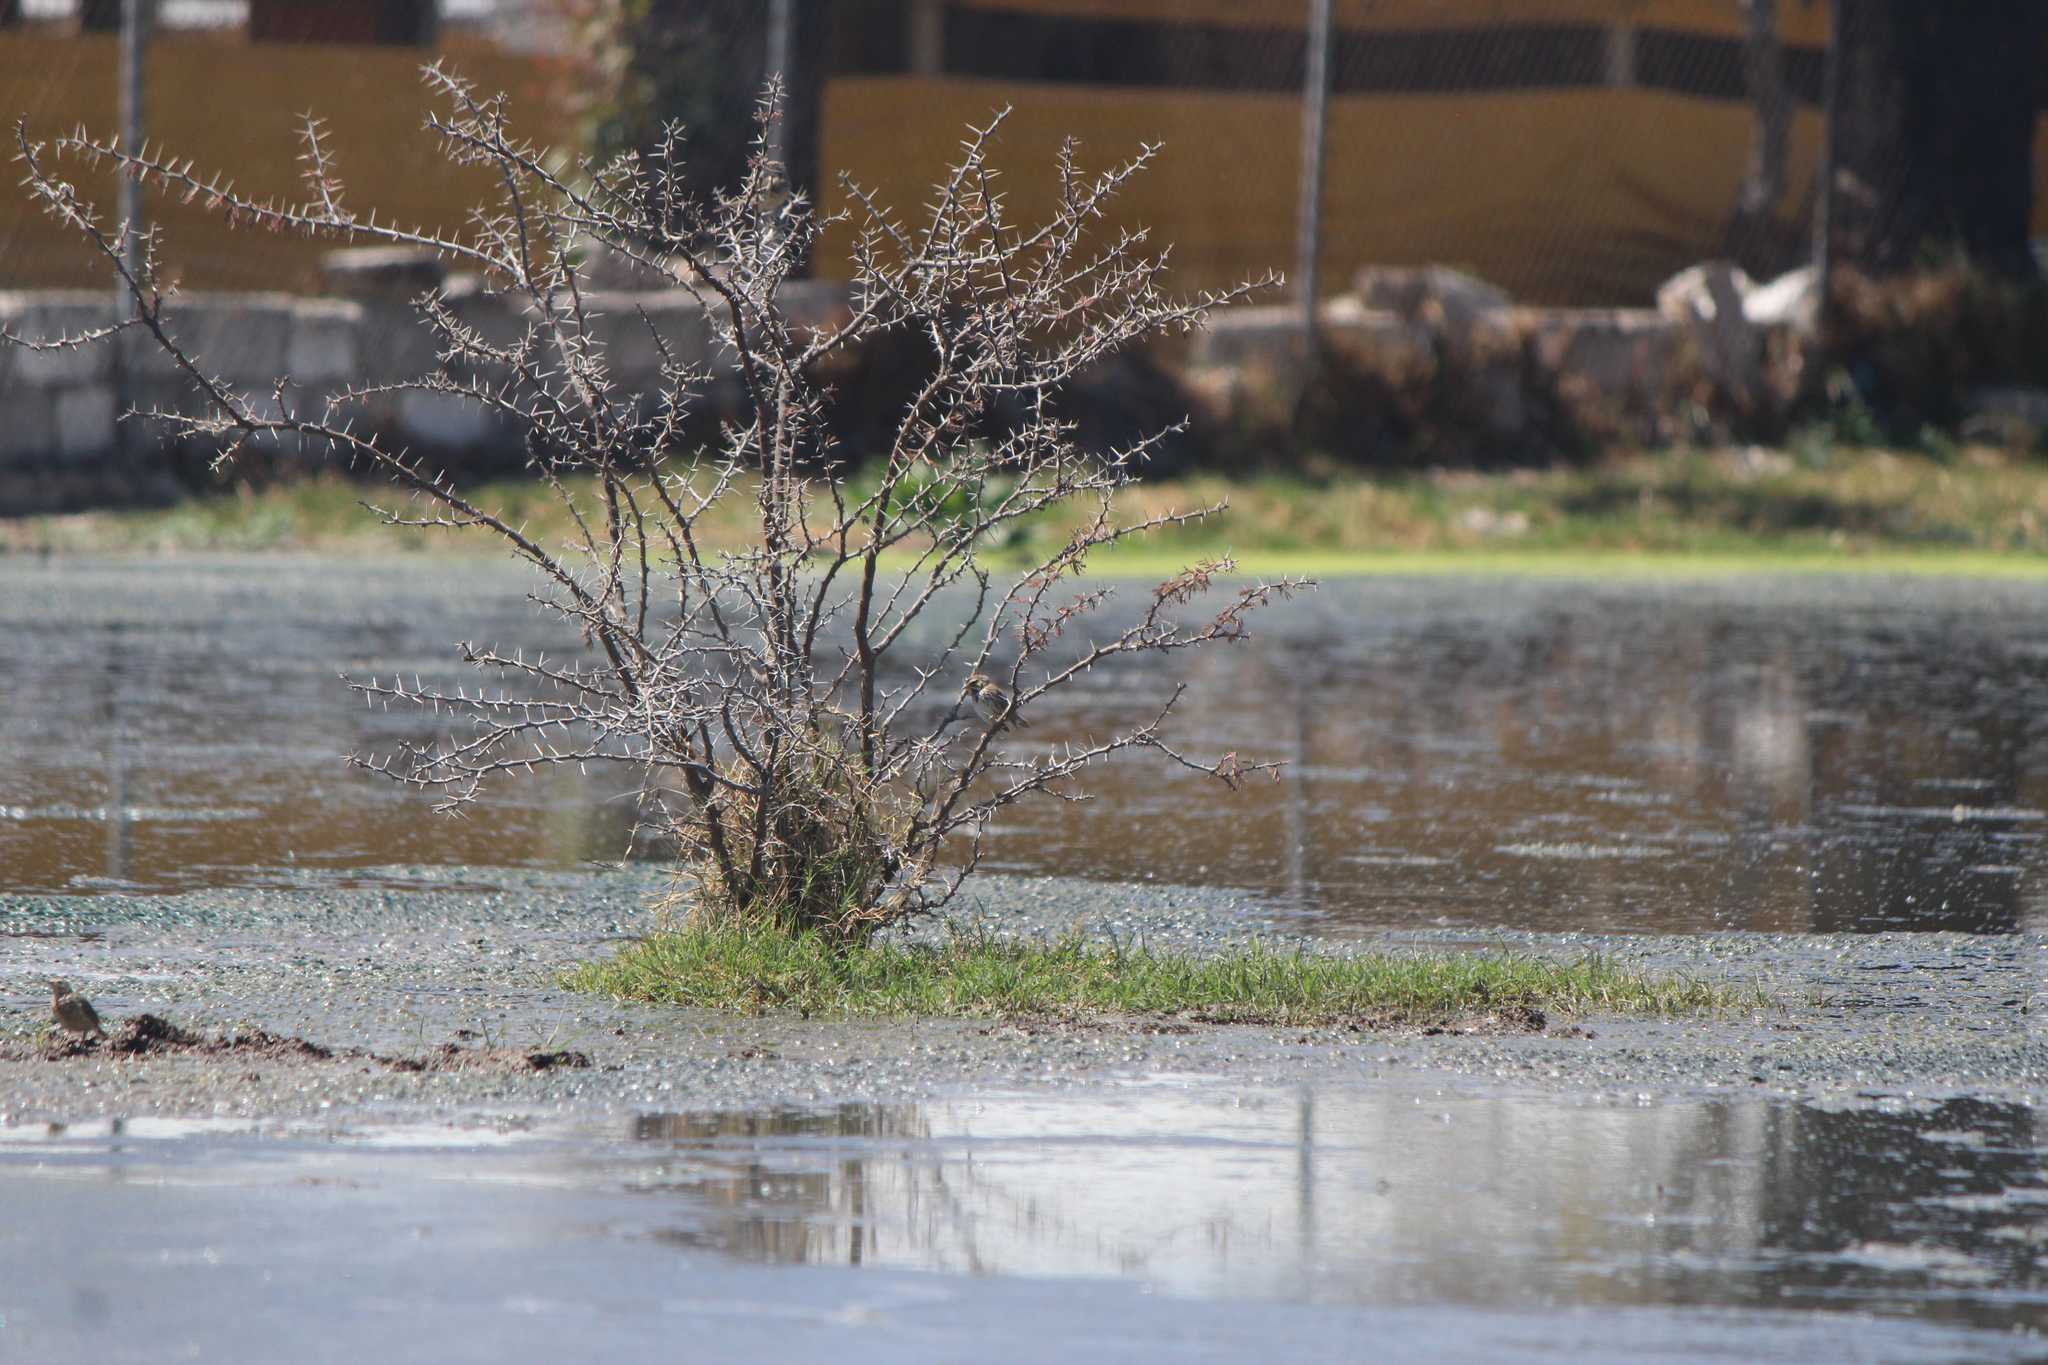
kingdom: Animalia
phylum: Chordata
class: Aves
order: Passeriformes
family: Passerellidae
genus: Passerculus
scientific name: Passerculus sandwichensis
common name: Savannah sparrow
